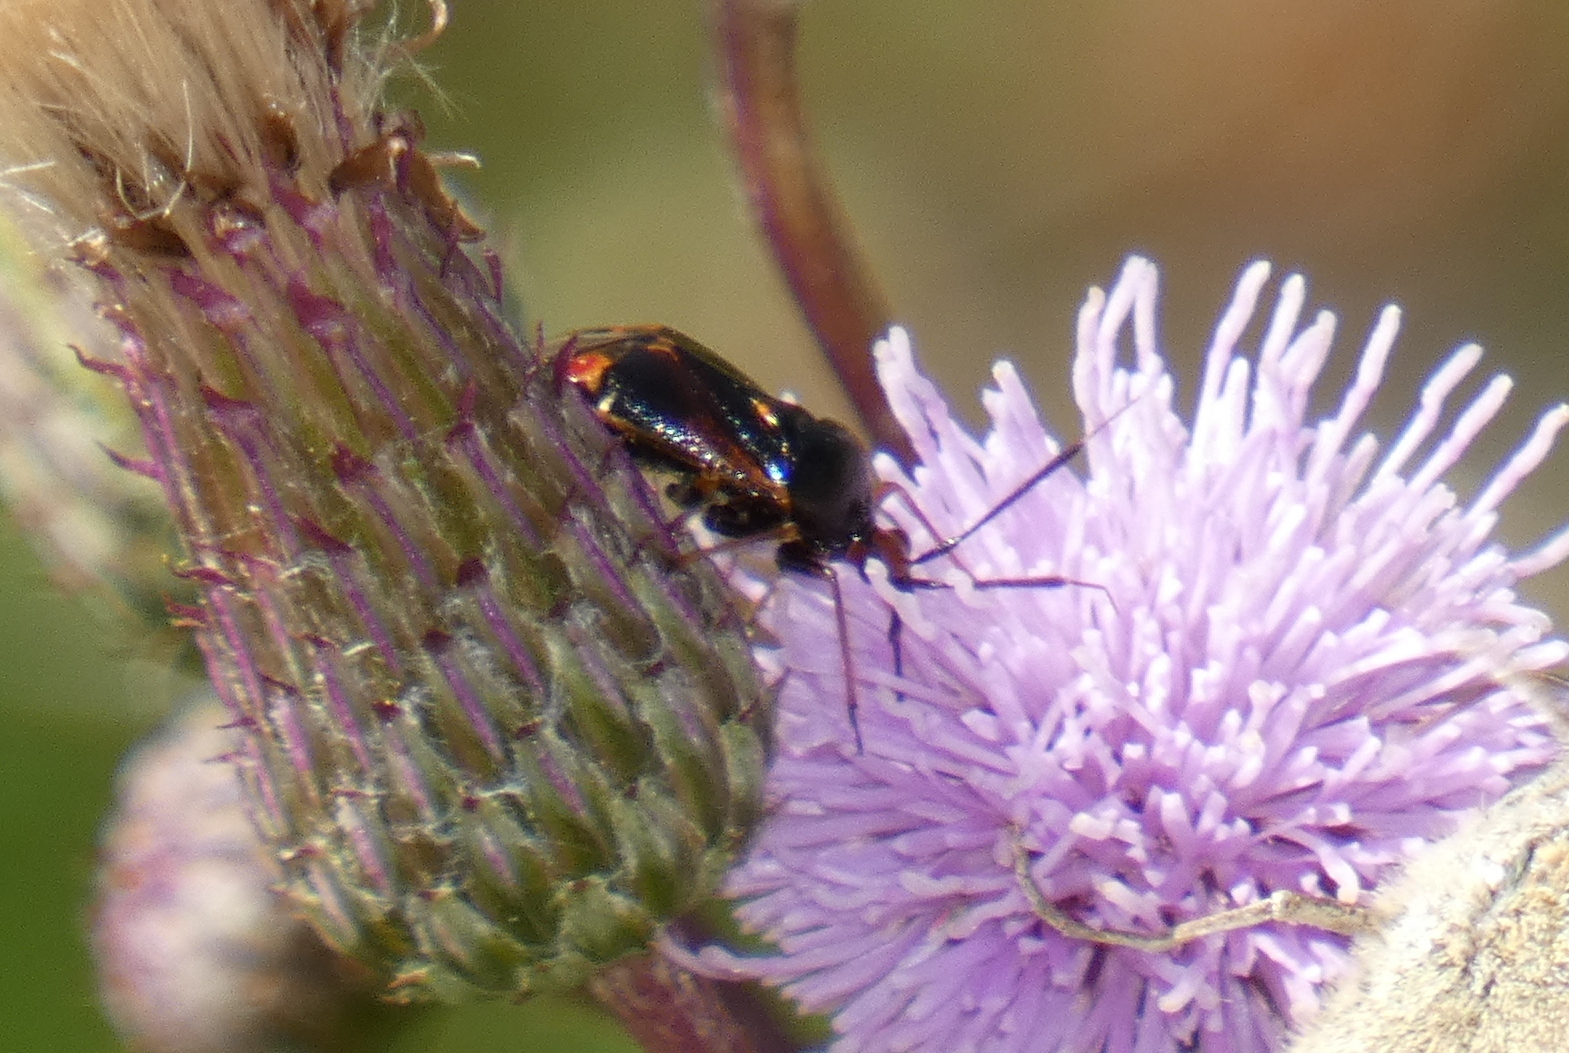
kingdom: Animalia
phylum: Arthropoda
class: Insecta
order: Hemiptera
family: Miridae
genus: Deraeocoris
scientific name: Deraeocoris ruber
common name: Plant bug
